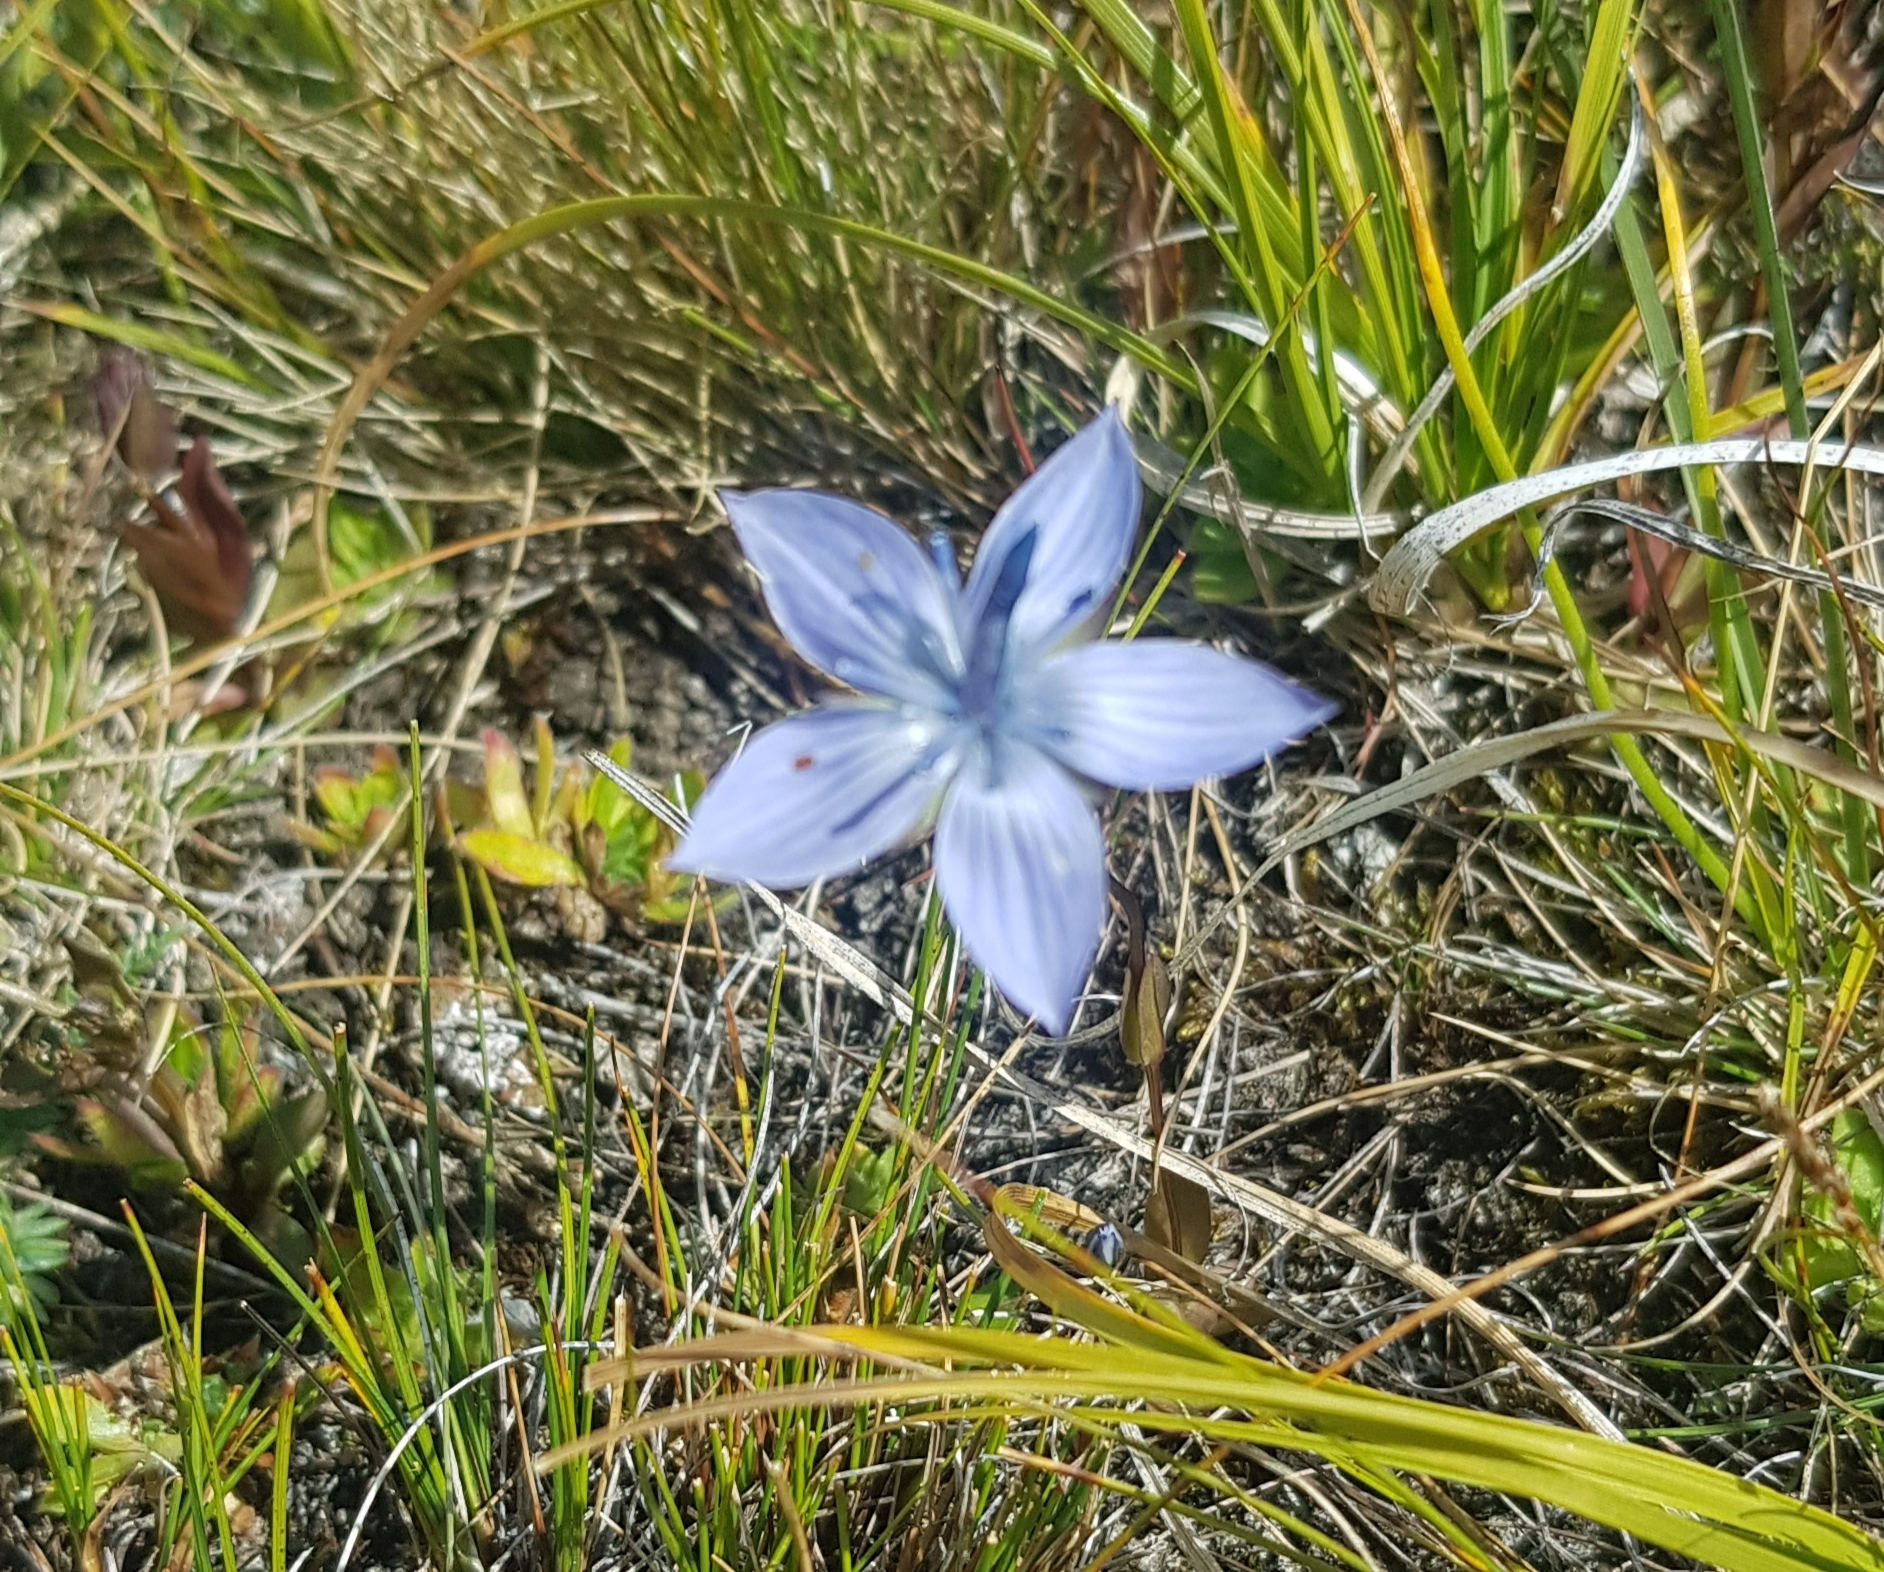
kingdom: Plantae
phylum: Tracheophyta
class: Magnoliopsida
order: Gentianales
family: Gentianaceae
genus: Lomatogonium
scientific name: Lomatogonium carinthiacum
